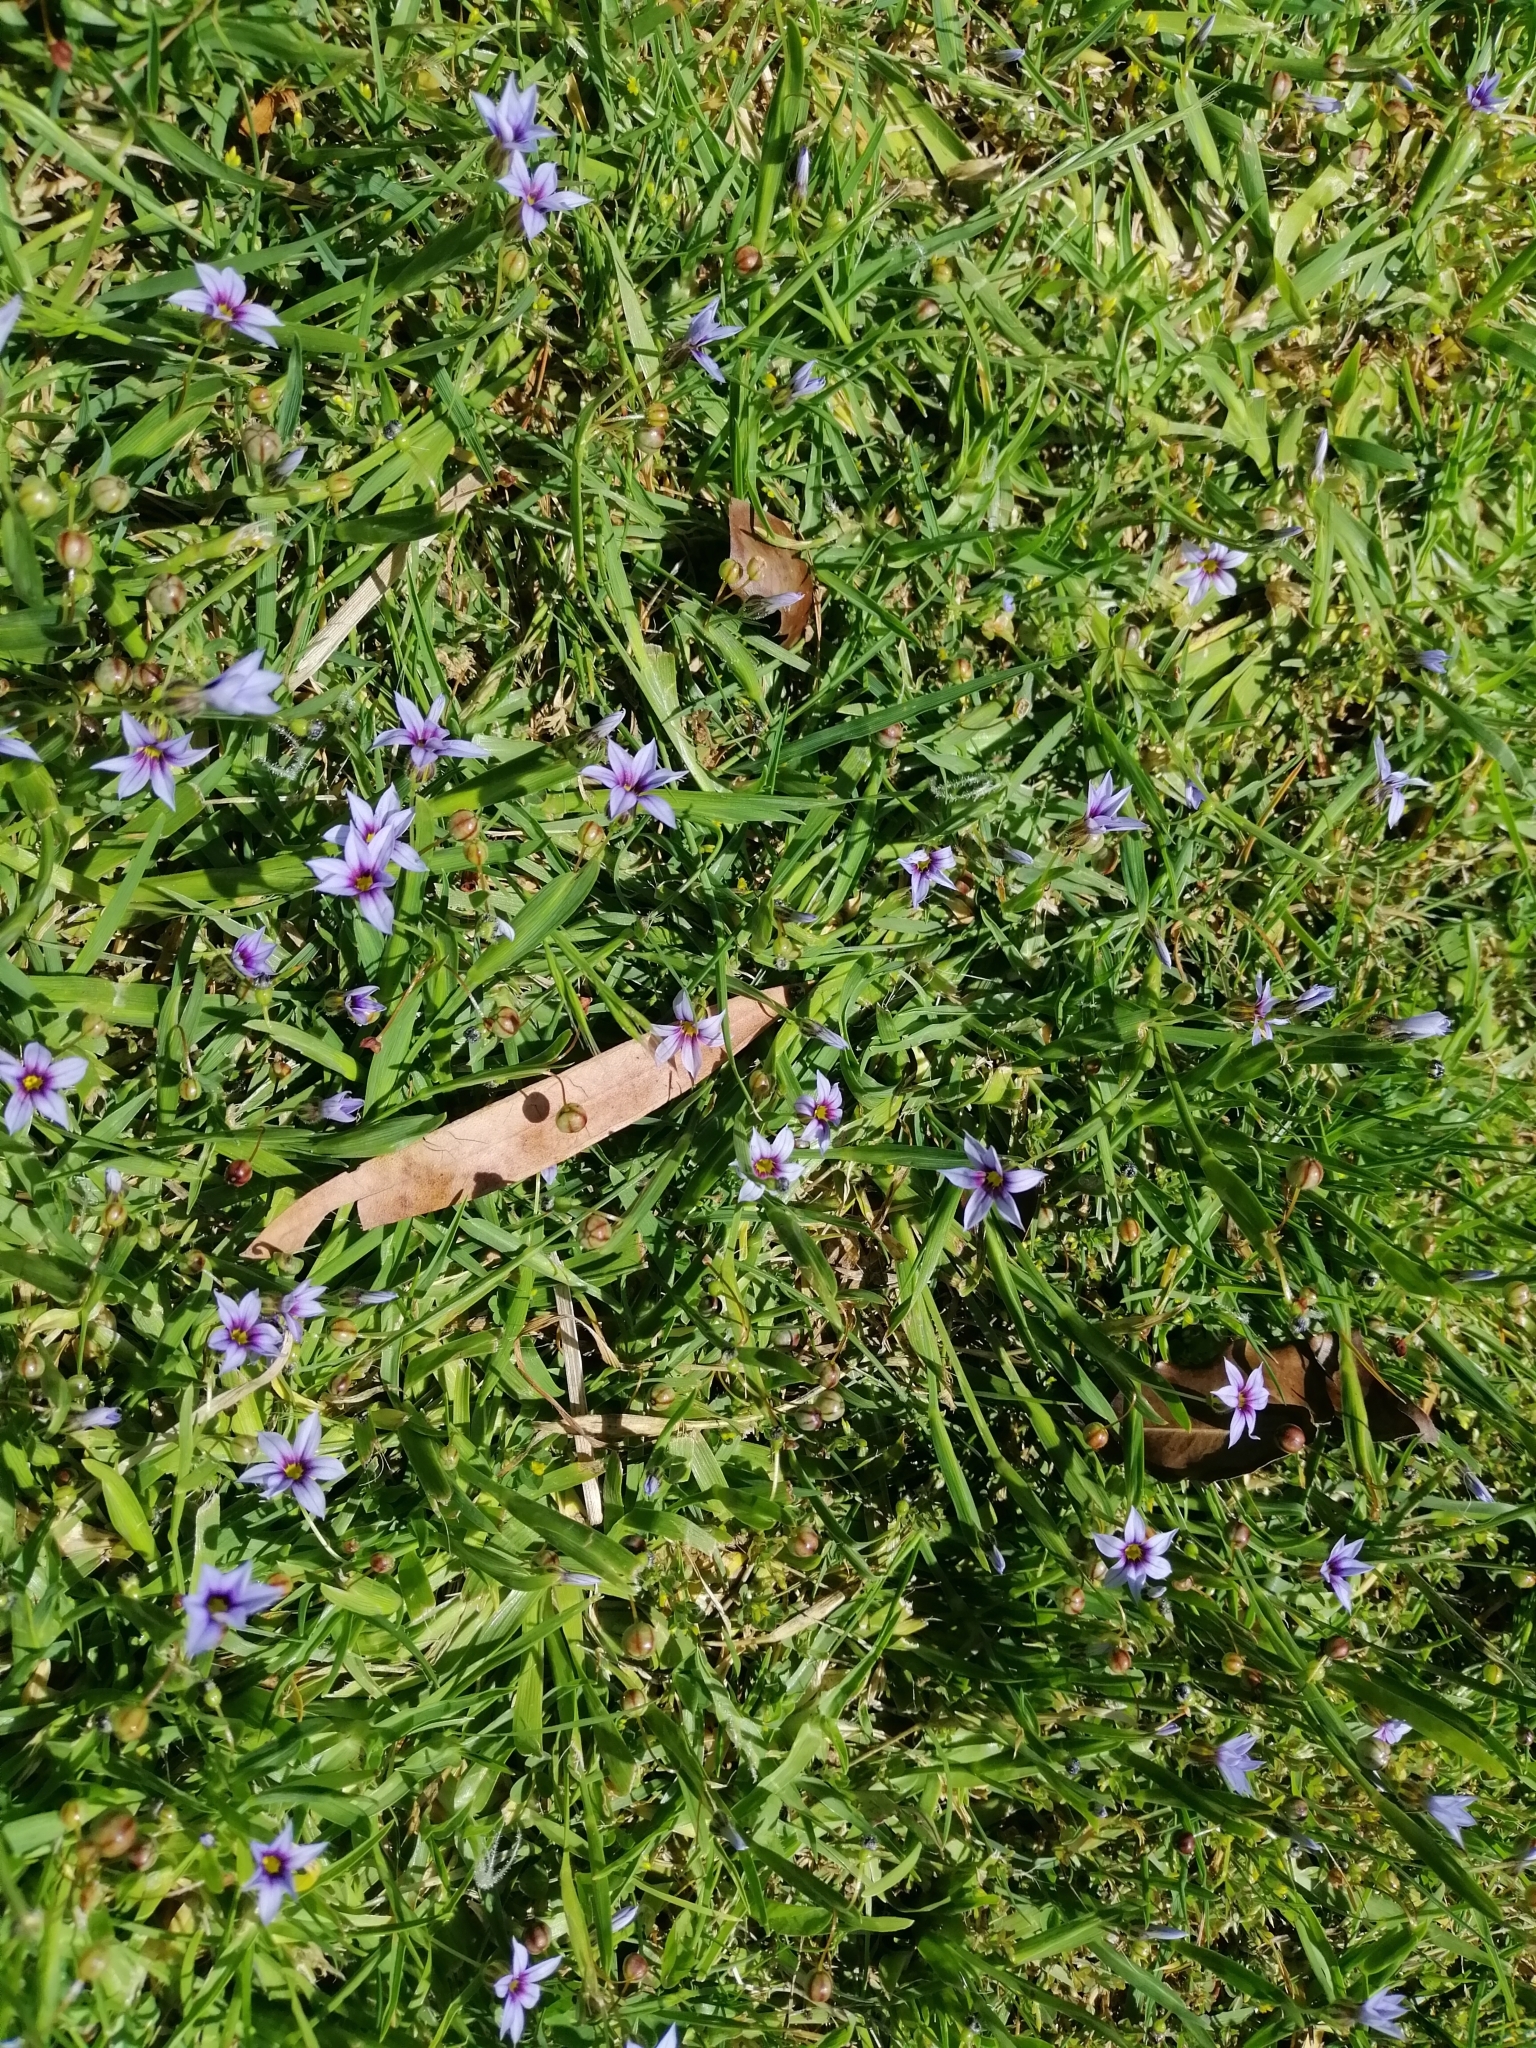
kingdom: Plantae
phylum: Tracheophyta
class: Liliopsida
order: Asparagales
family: Iridaceae
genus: Sisyrinchium
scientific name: Sisyrinchium micranthum
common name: Bermuda pigroot
